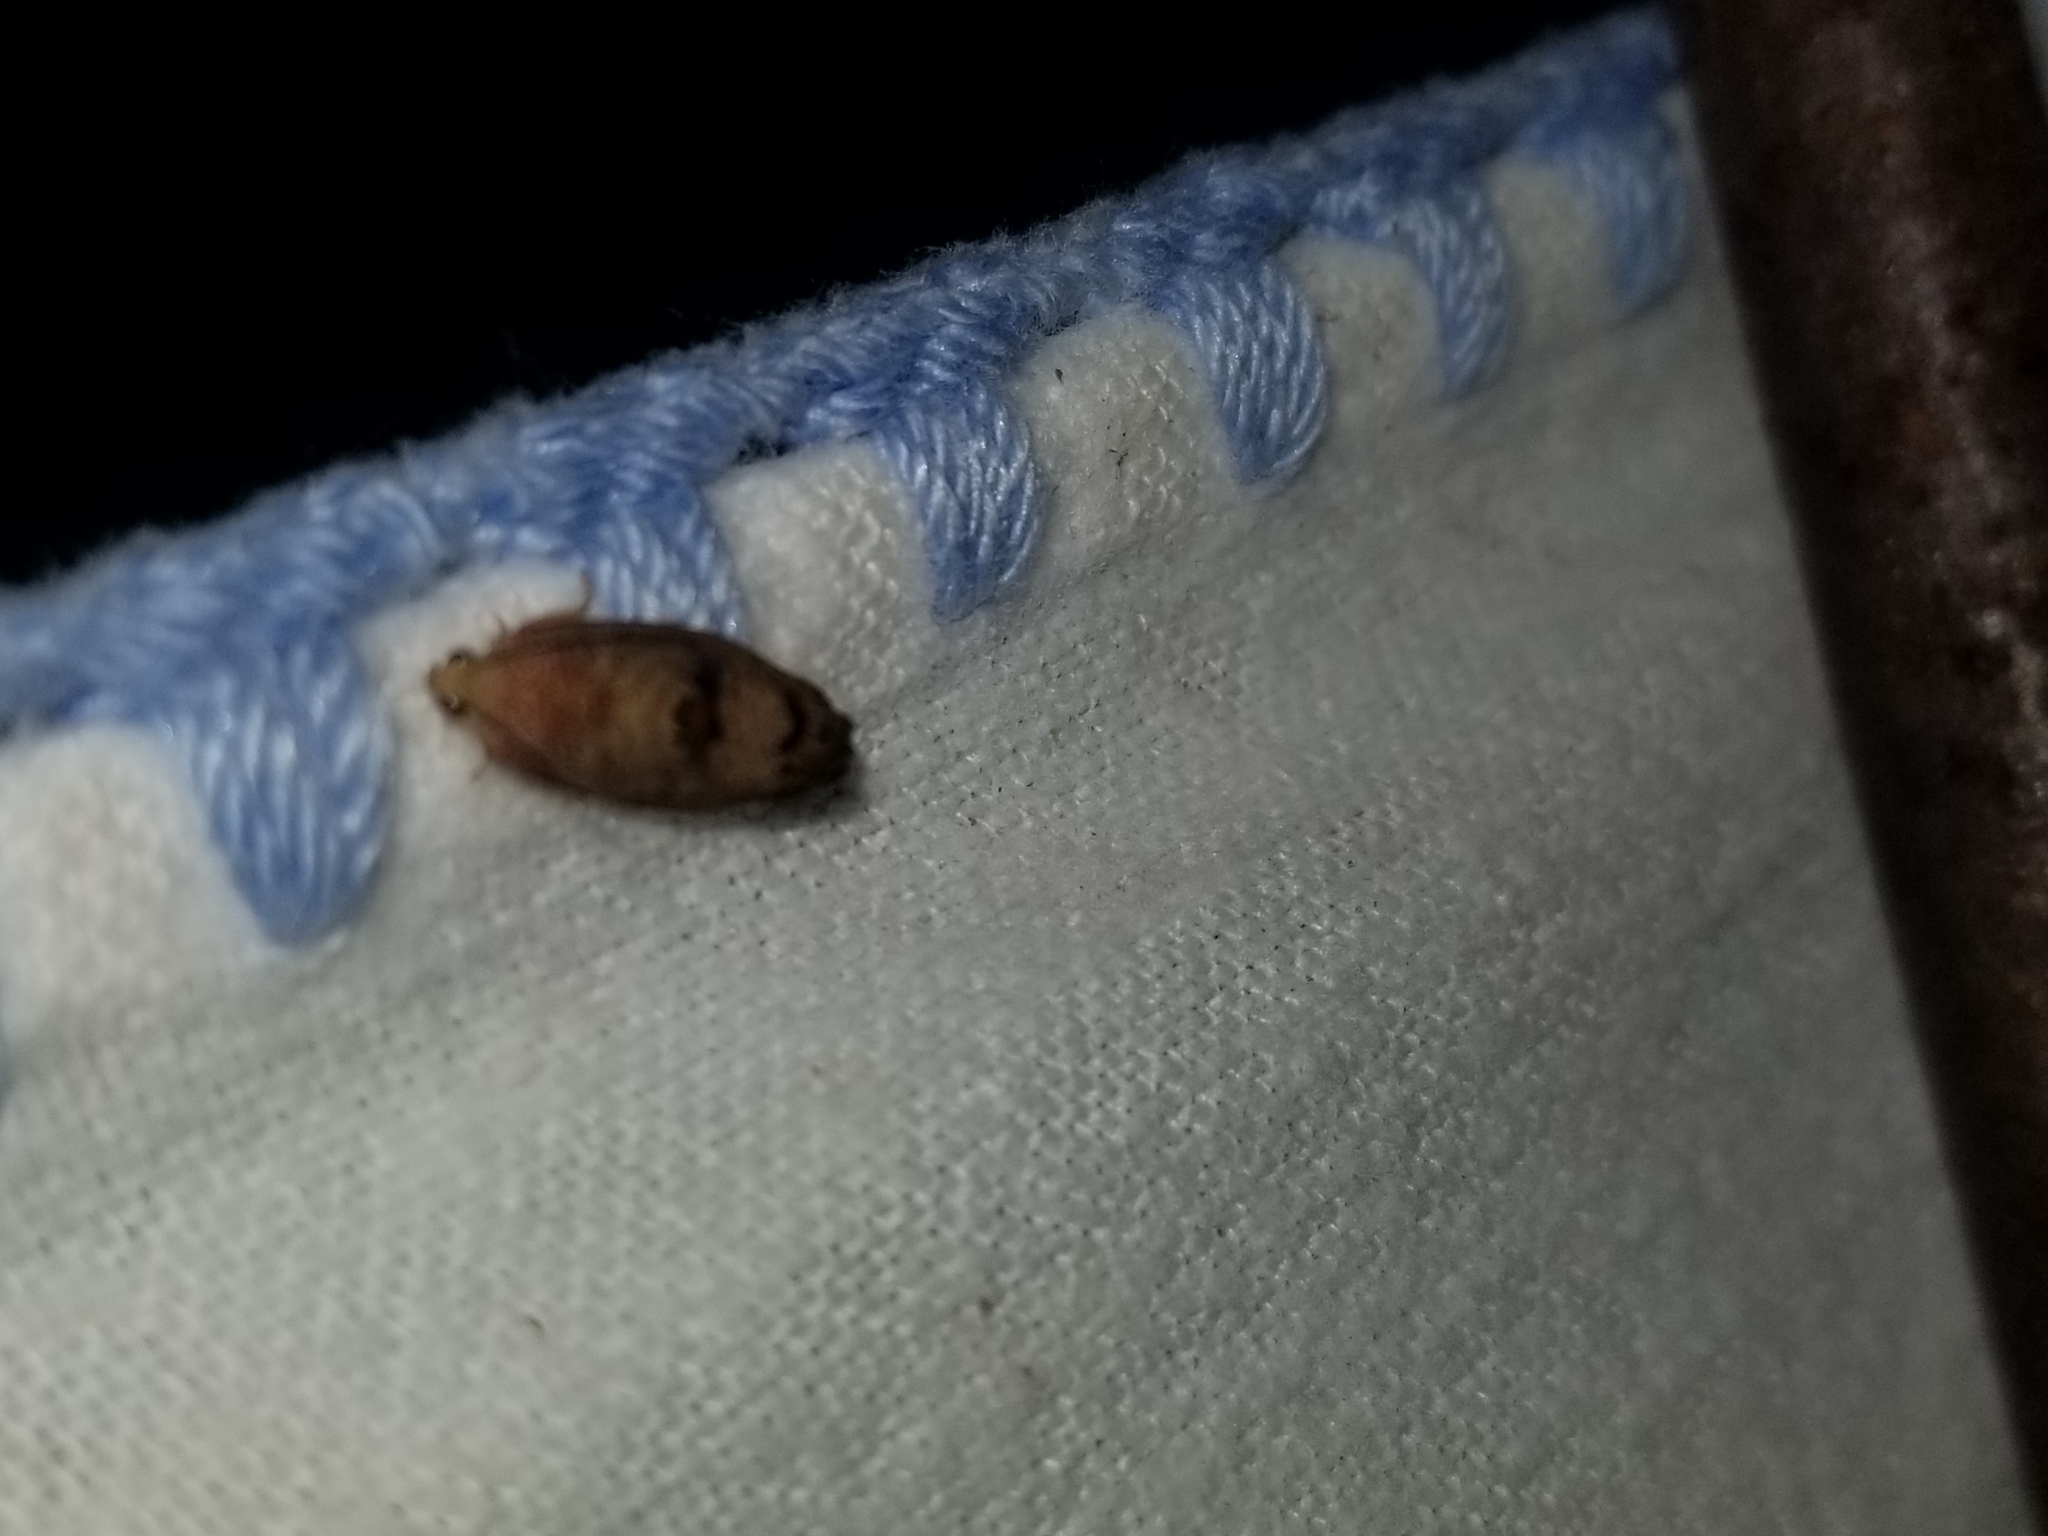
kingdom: Animalia
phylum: Arthropoda
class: Insecta
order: Lepidoptera
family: Tortricidae
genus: Cydia
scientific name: Cydia latiferreana
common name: Filbertworm moth
